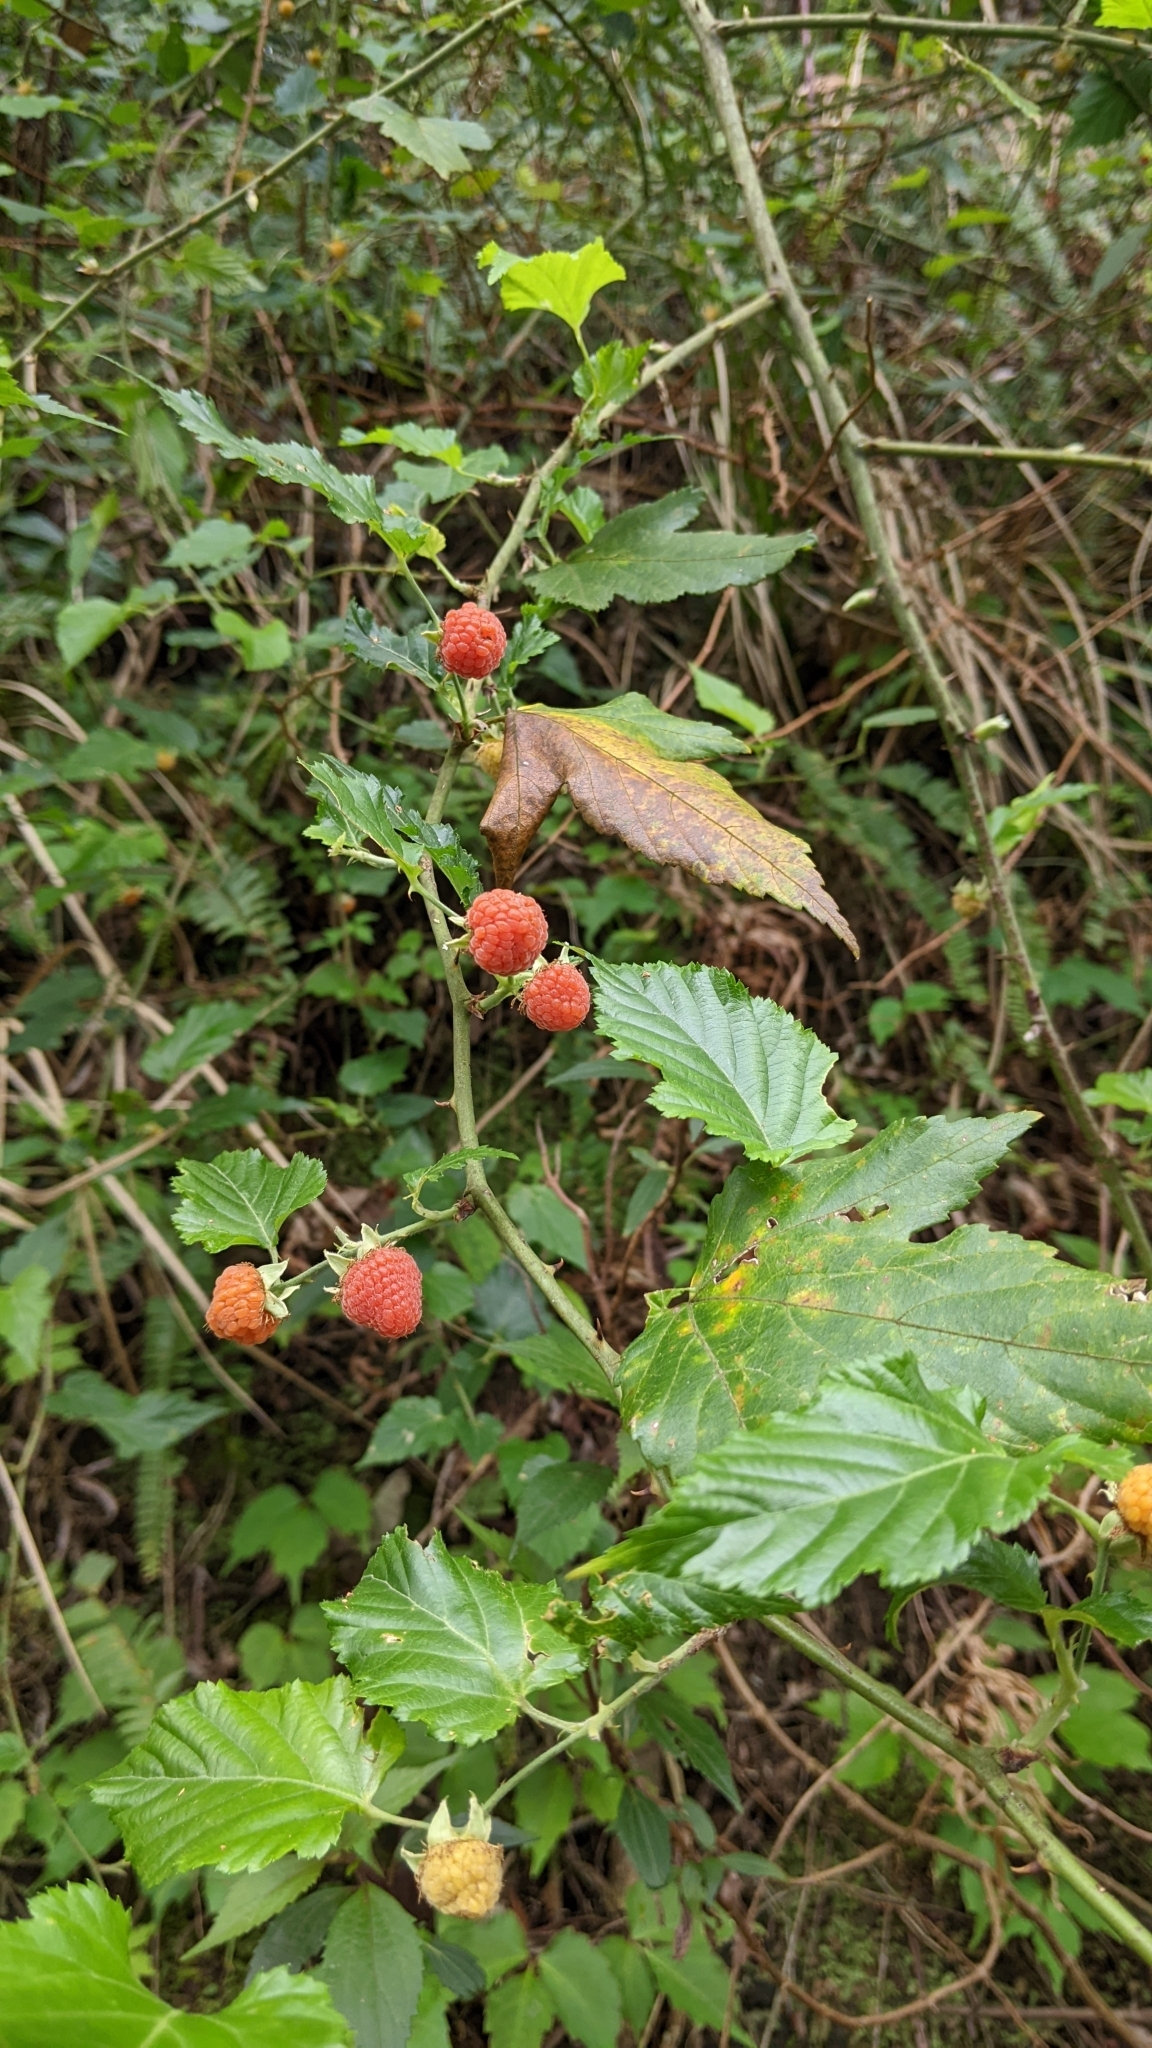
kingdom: Plantae
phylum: Tracheophyta
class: Magnoliopsida
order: Rosales
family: Rosaceae
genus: Rubus
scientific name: Rubus corchorifolius
